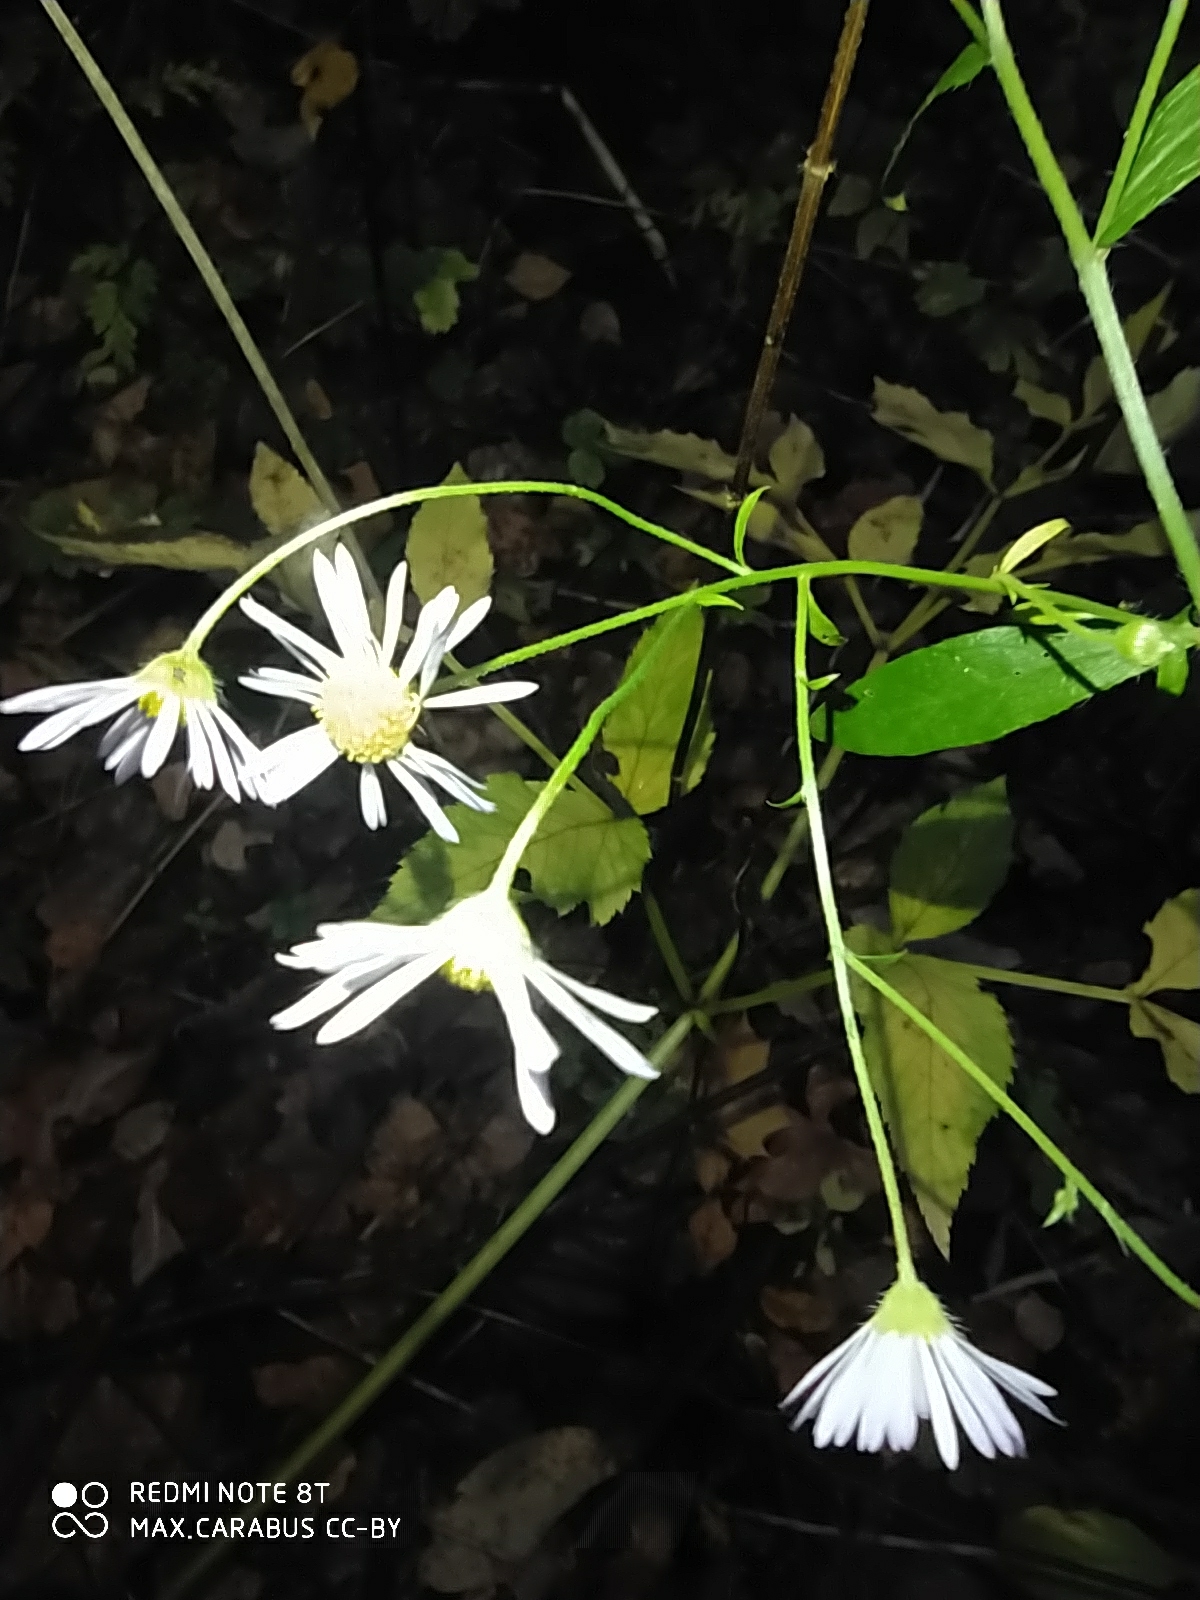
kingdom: Plantae
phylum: Tracheophyta
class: Magnoliopsida
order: Asterales
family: Asteraceae
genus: Erigeron
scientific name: Erigeron annuus
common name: Tall fleabane
